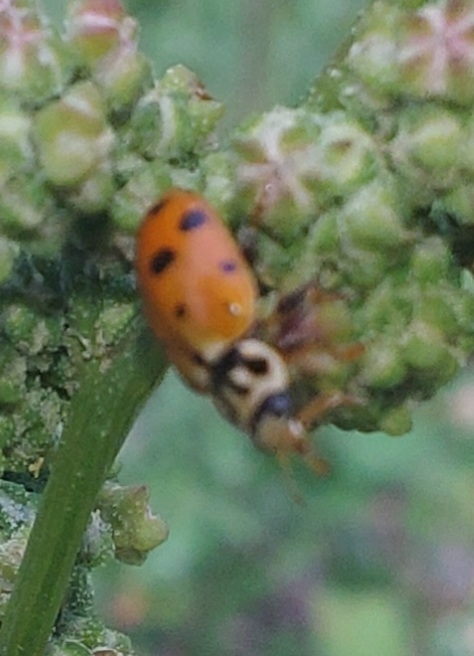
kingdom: Animalia
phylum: Arthropoda
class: Insecta
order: Coleoptera
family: Coccinellidae
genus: Hippodamia
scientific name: Hippodamia variegata
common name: Ladybird beetle
